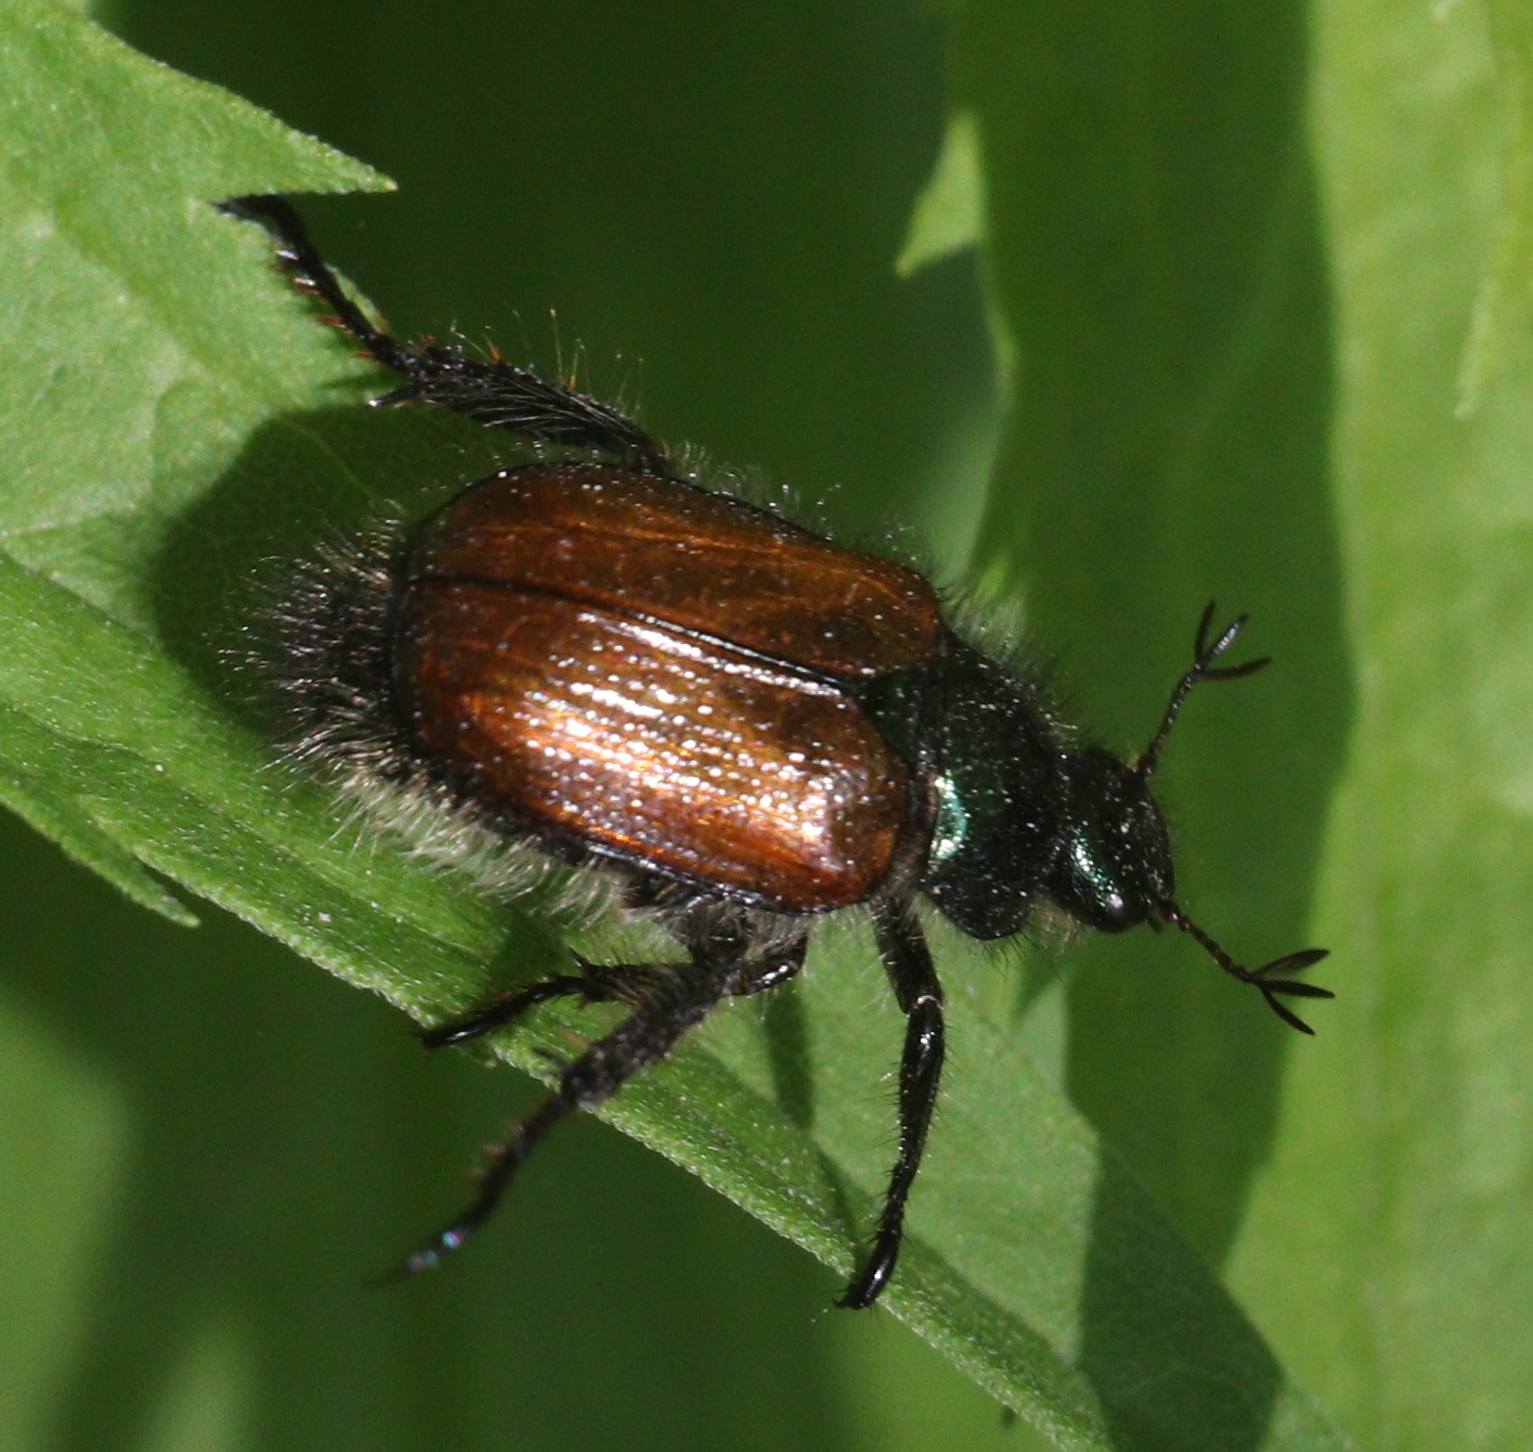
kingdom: Animalia
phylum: Arthropoda
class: Insecta
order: Coleoptera
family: Scarabaeidae
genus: Phyllopertha
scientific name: Phyllopertha horticola
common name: Garden chafer
